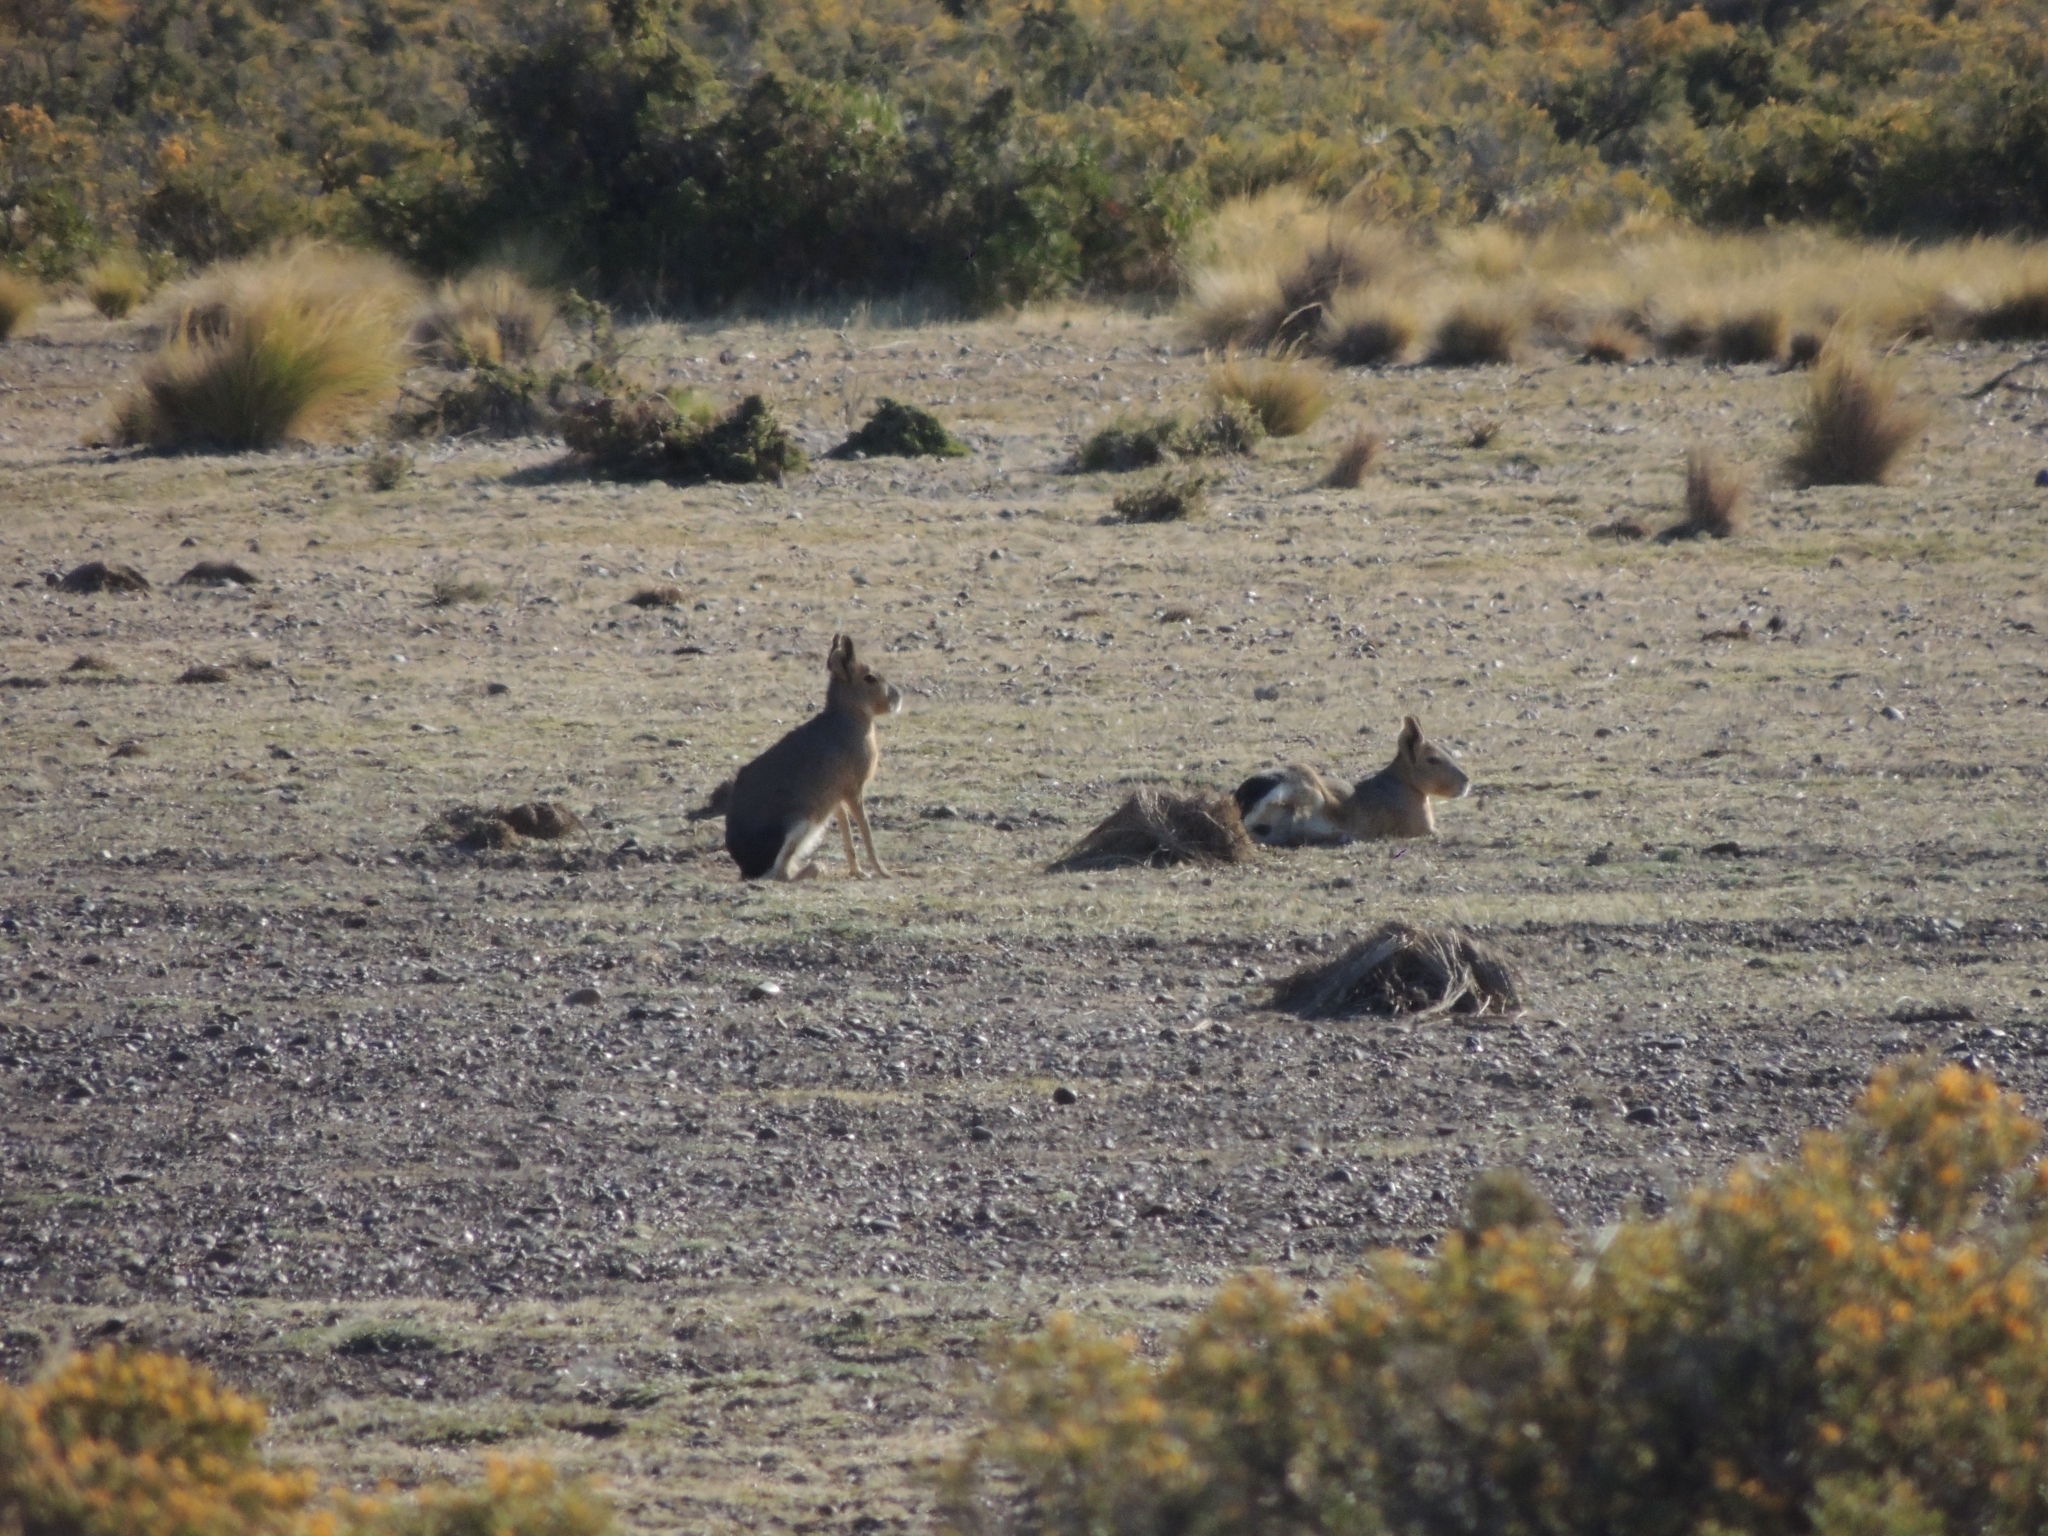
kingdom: Animalia
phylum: Chordata
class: Mammalia
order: Rodentia
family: Caviidae
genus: Dolichotis
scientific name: Dolichotis patagonum
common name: Patagonian mara
